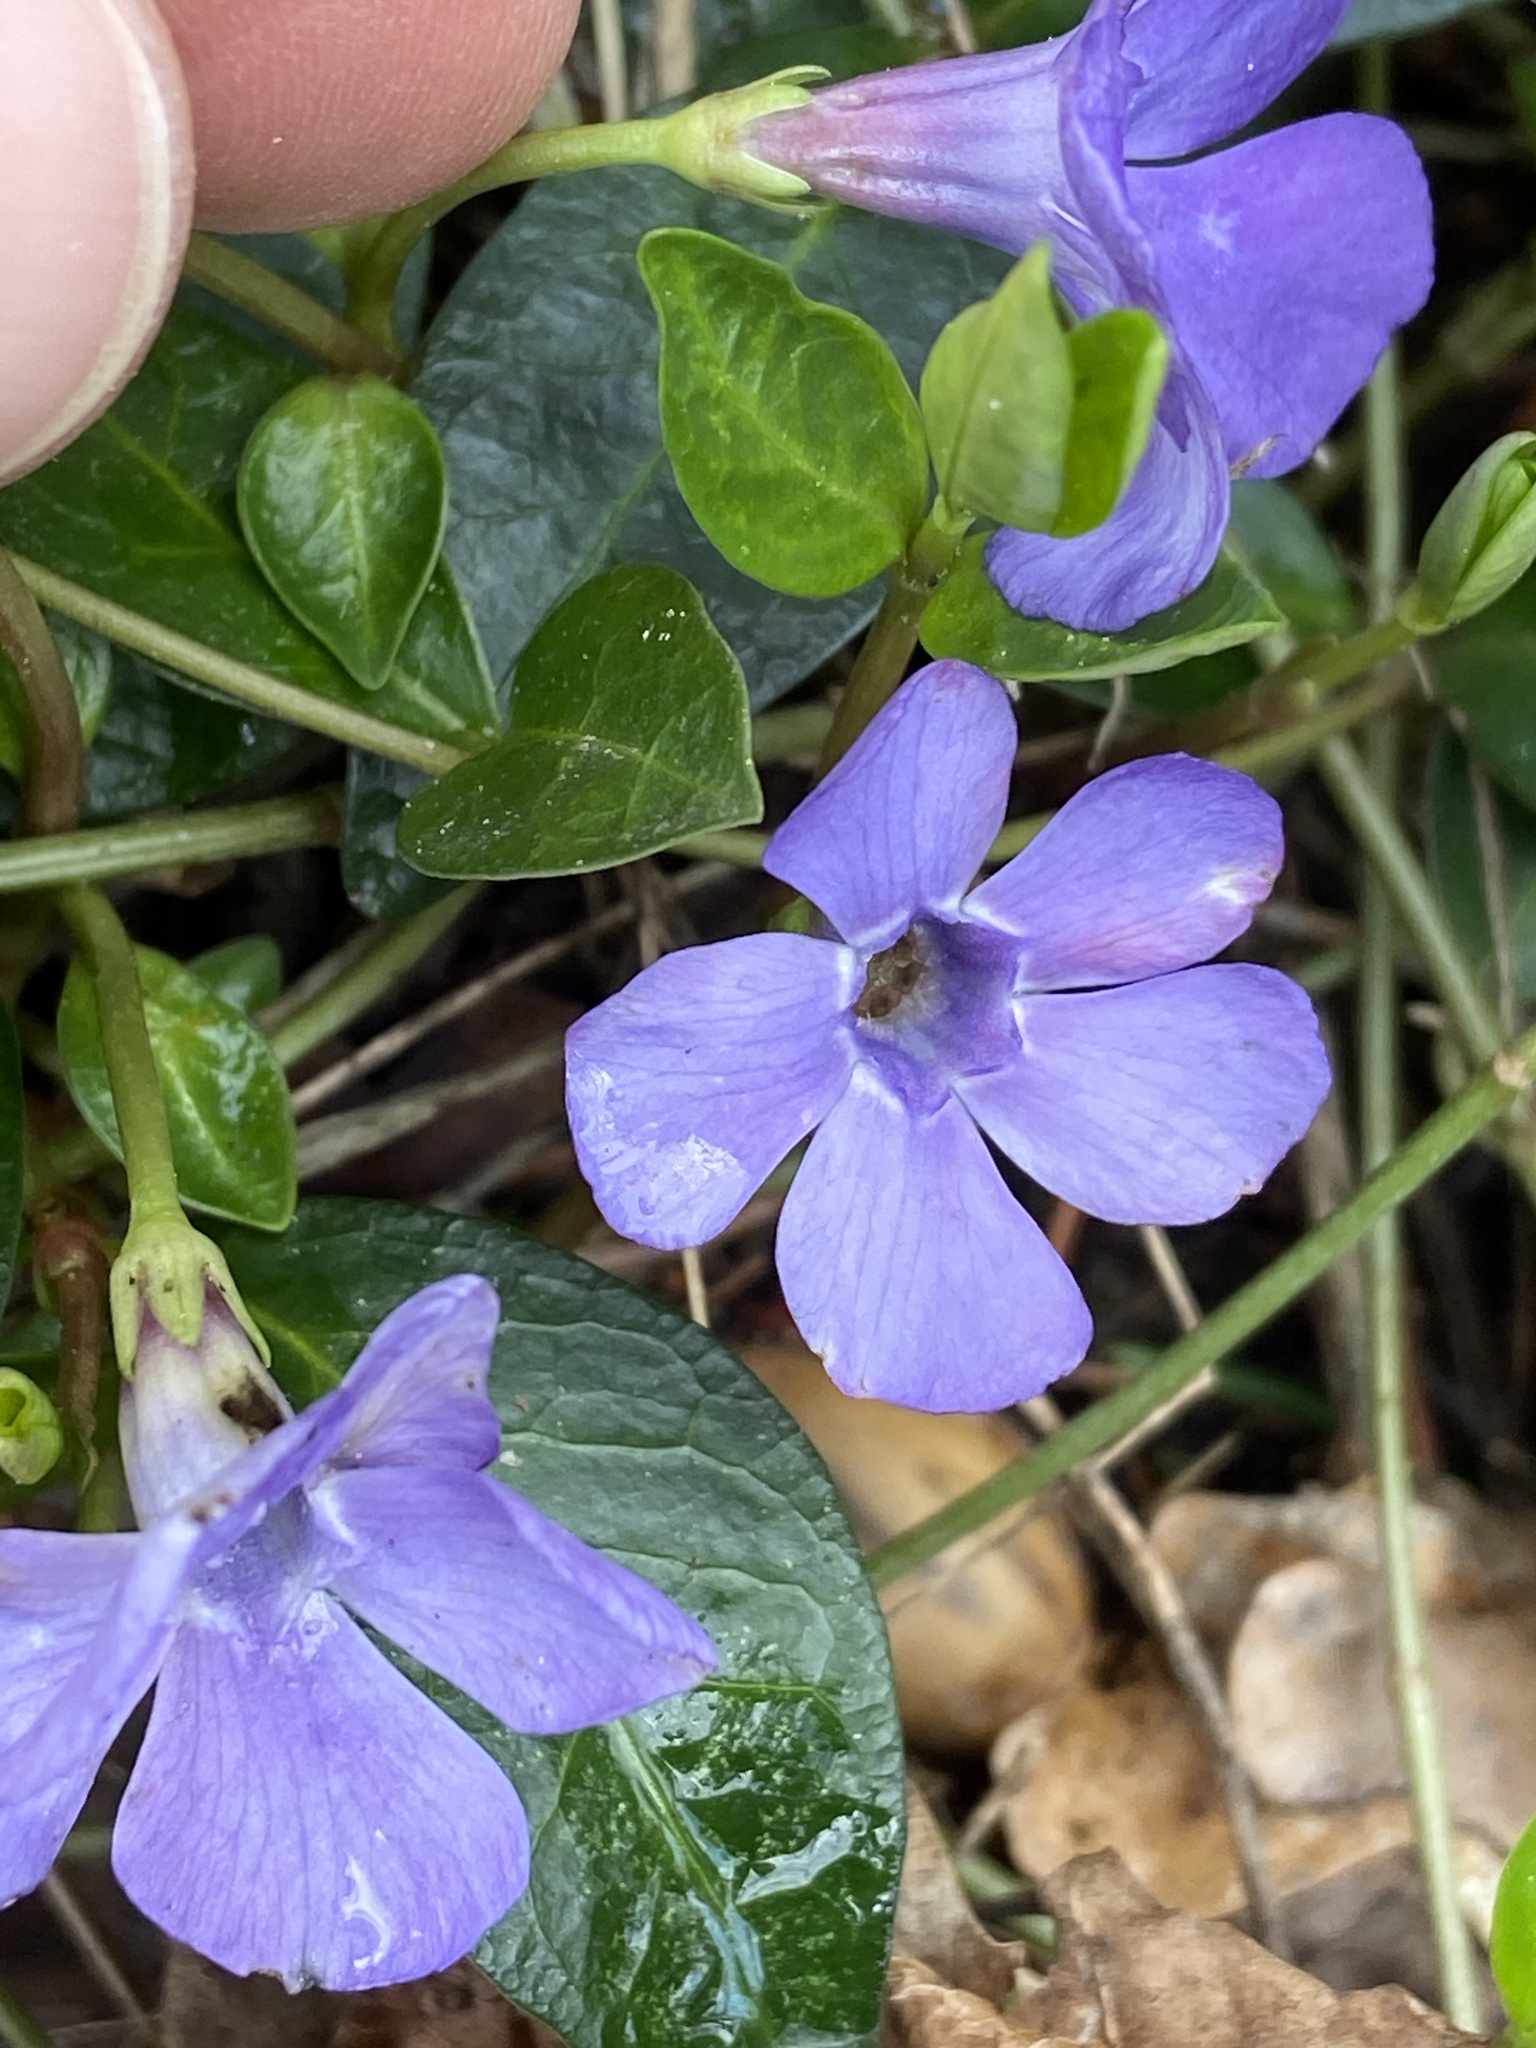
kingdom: Plantae
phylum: Tracheophyta
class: Magnoliopsida
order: Gentianales
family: Apocynaceae
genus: Vinca
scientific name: Vinca minor
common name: Lesser periwinkle
